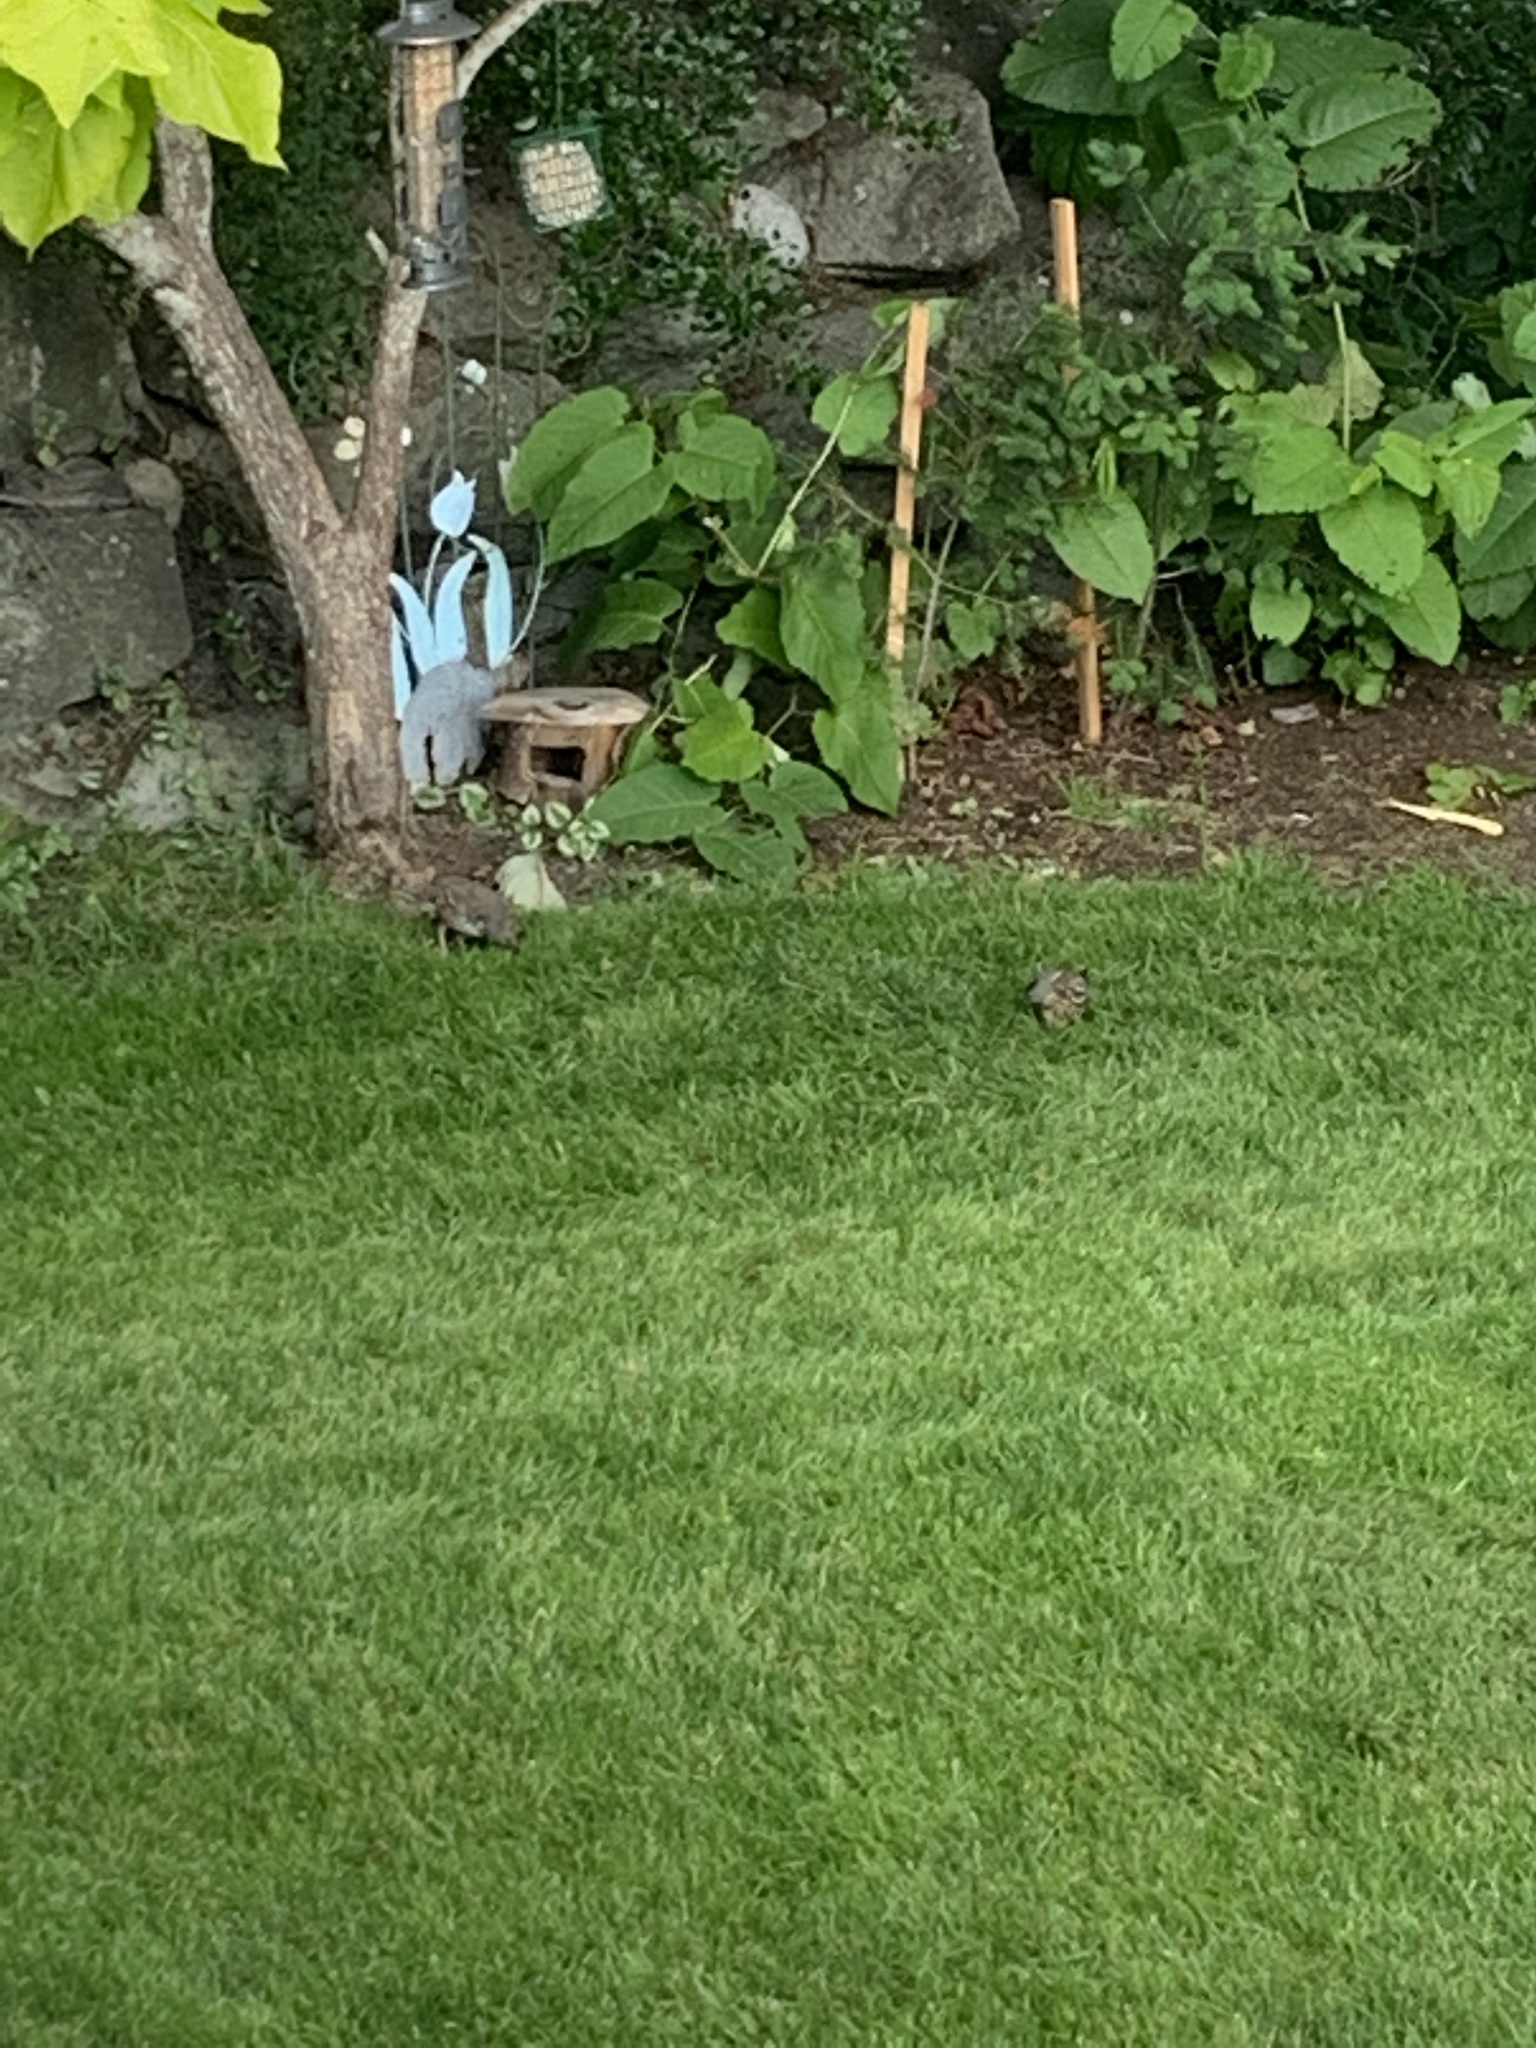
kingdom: Animalia
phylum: Chordata
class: Aves
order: Galliformes
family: Odontophoridae
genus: Callipepla
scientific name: Callipepla californica
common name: California quail
